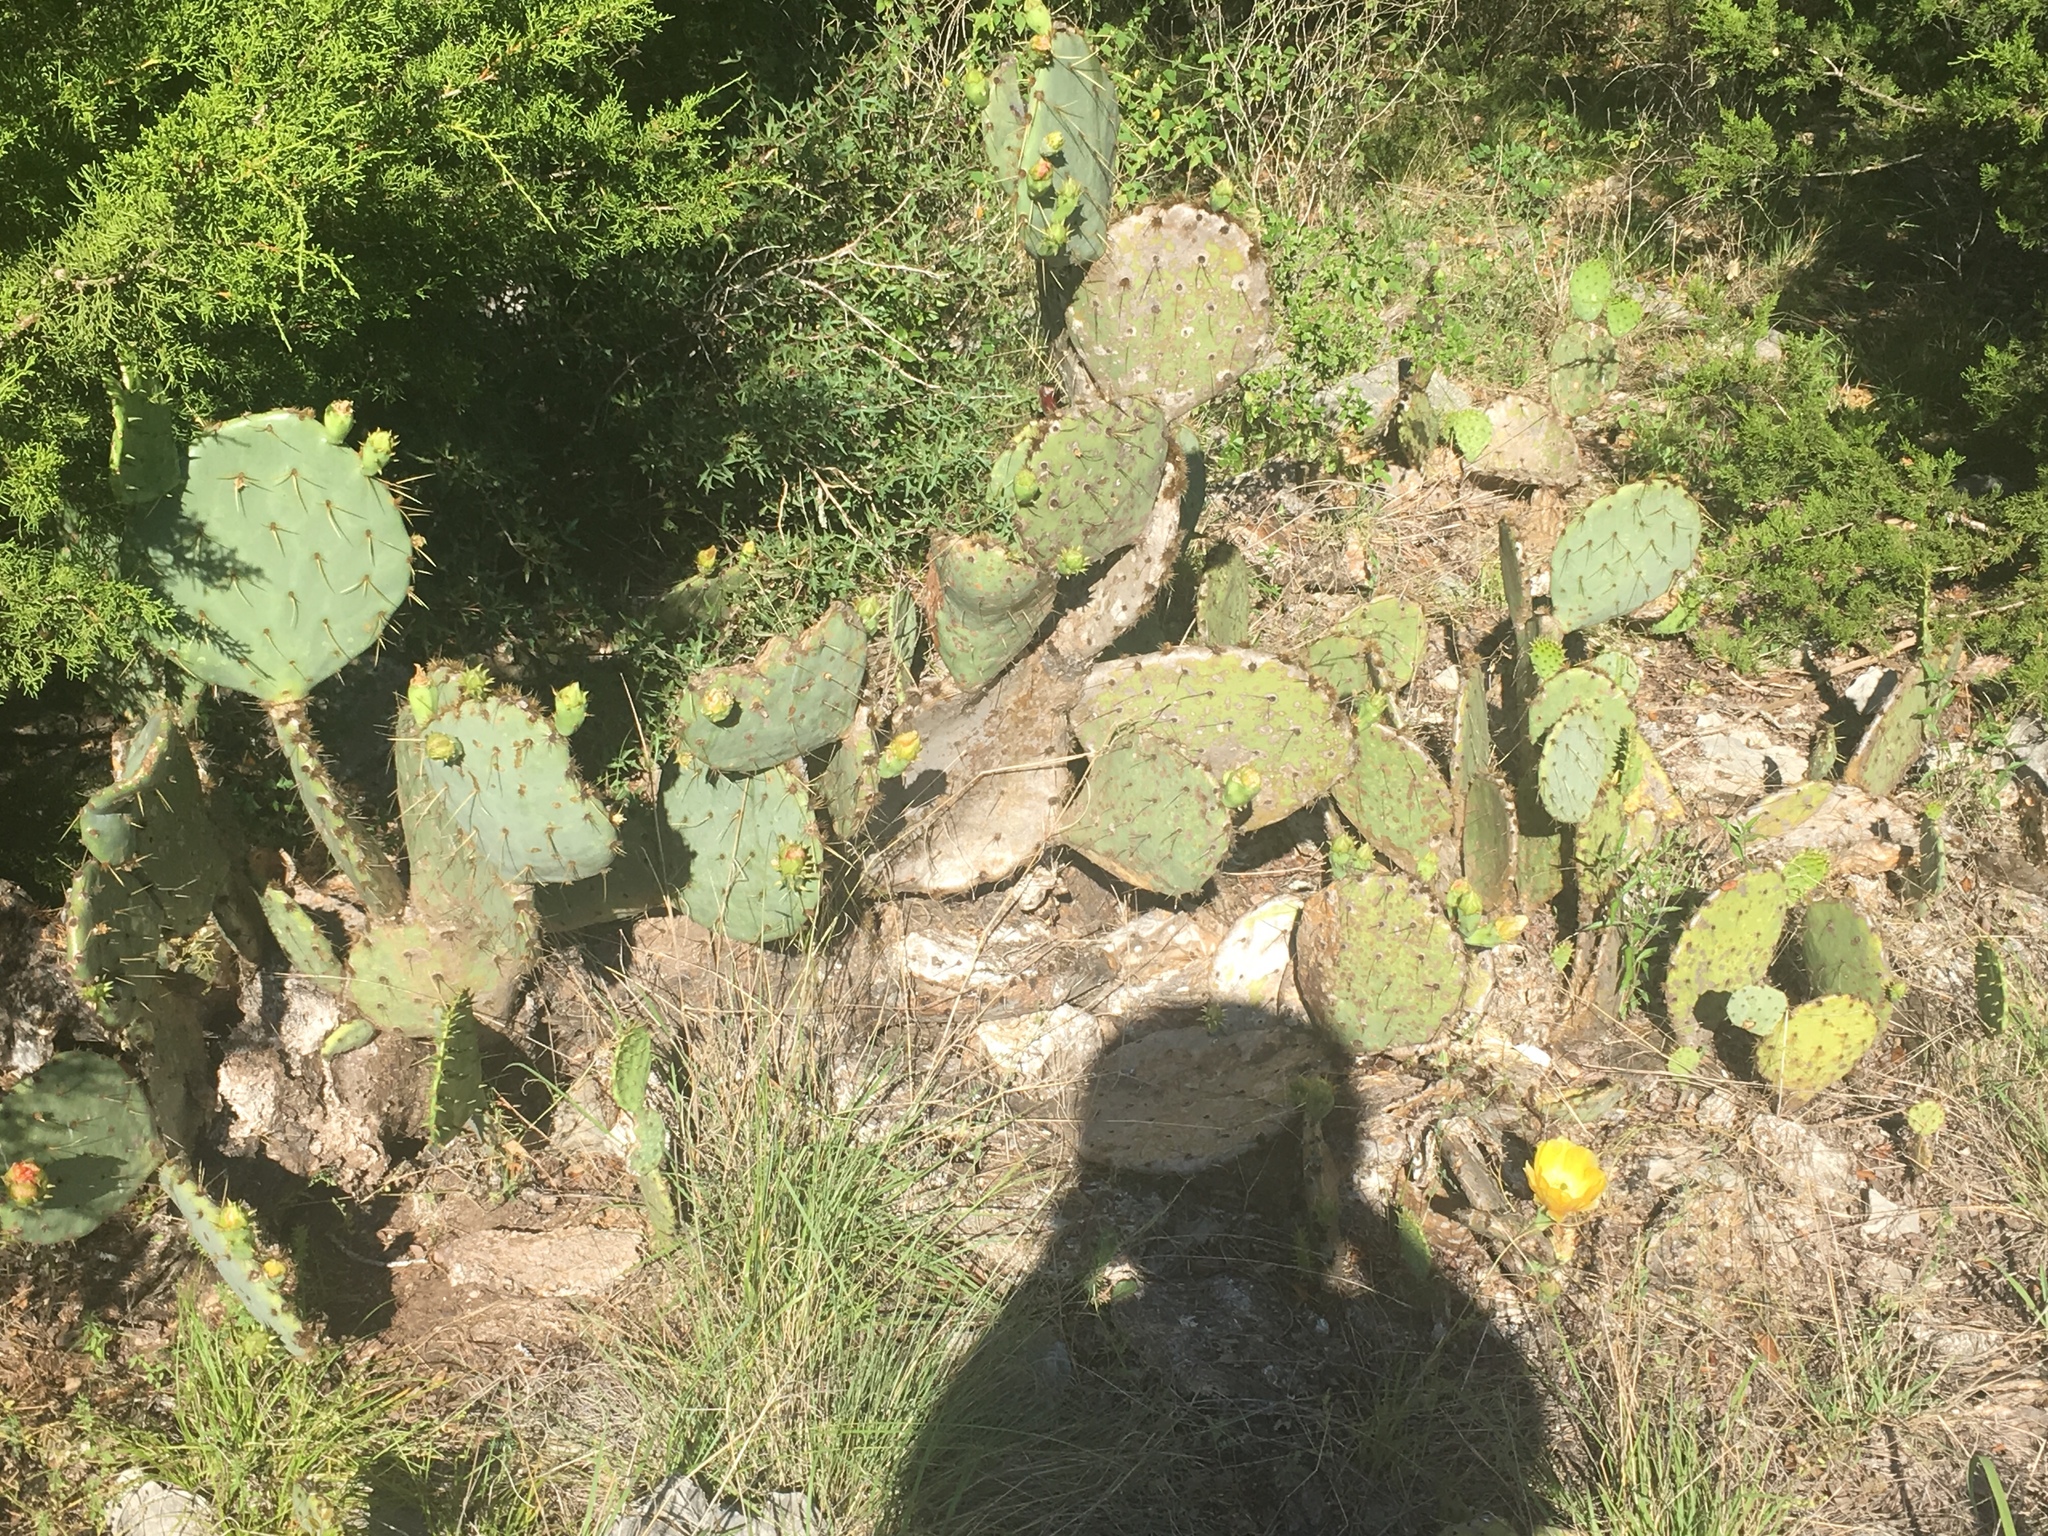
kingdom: Plantae
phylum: Tracheophyta
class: Magnoliopsida
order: Caryophyllales
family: Cactaceae
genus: Opuntia
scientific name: Opuntia engelmannii
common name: Cactus-apple
